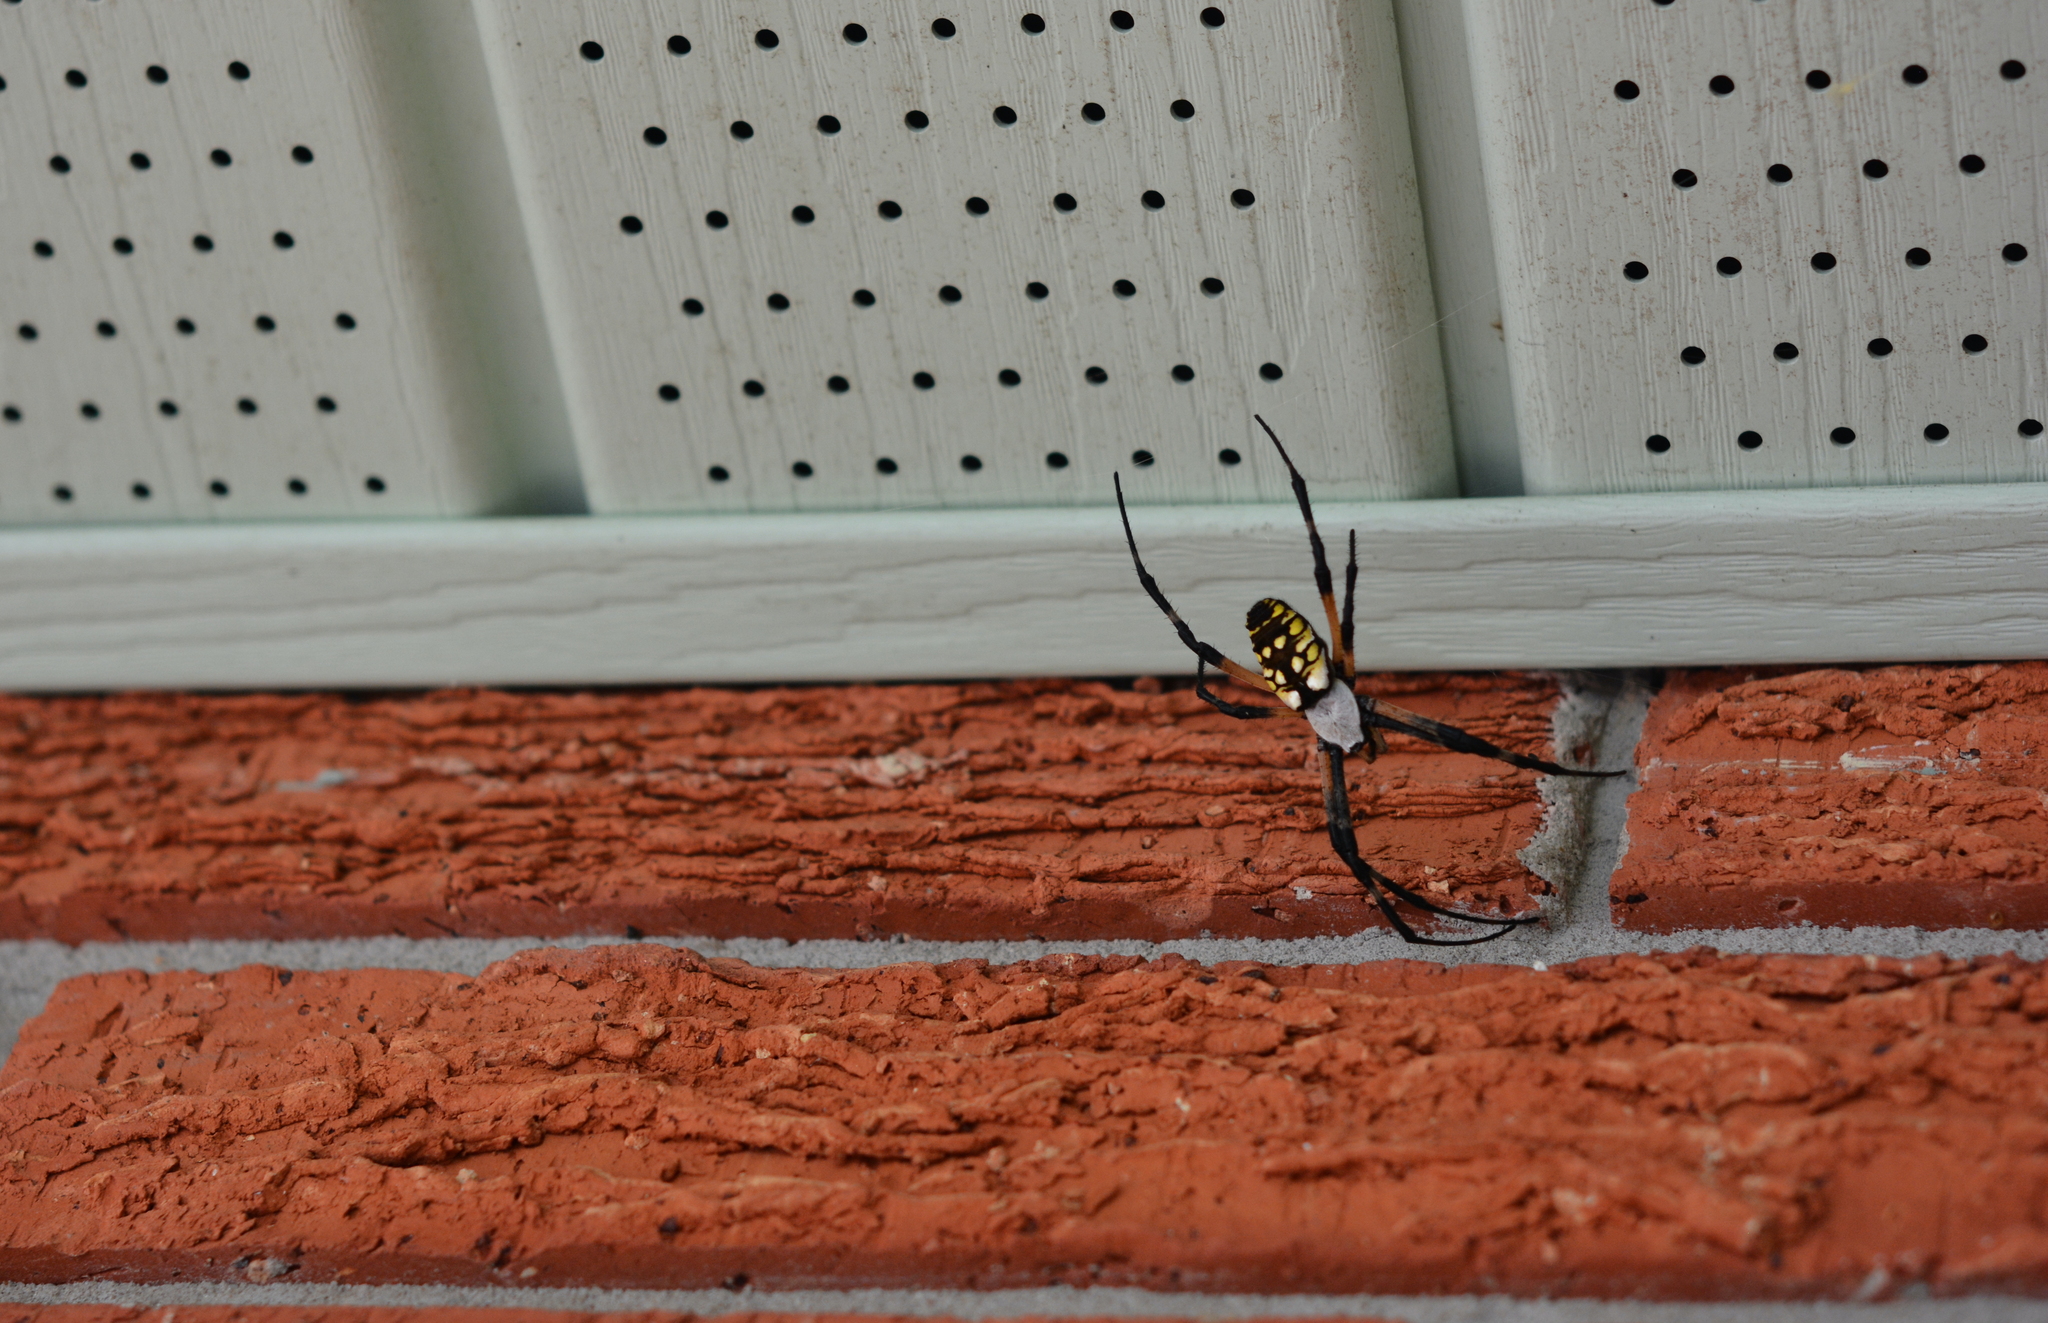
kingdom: Animalia
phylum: Arthropoda
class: Arachnida
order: Araneae
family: Araneidae
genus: Argiope
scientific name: Argiope aurantia
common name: Orb weavers
